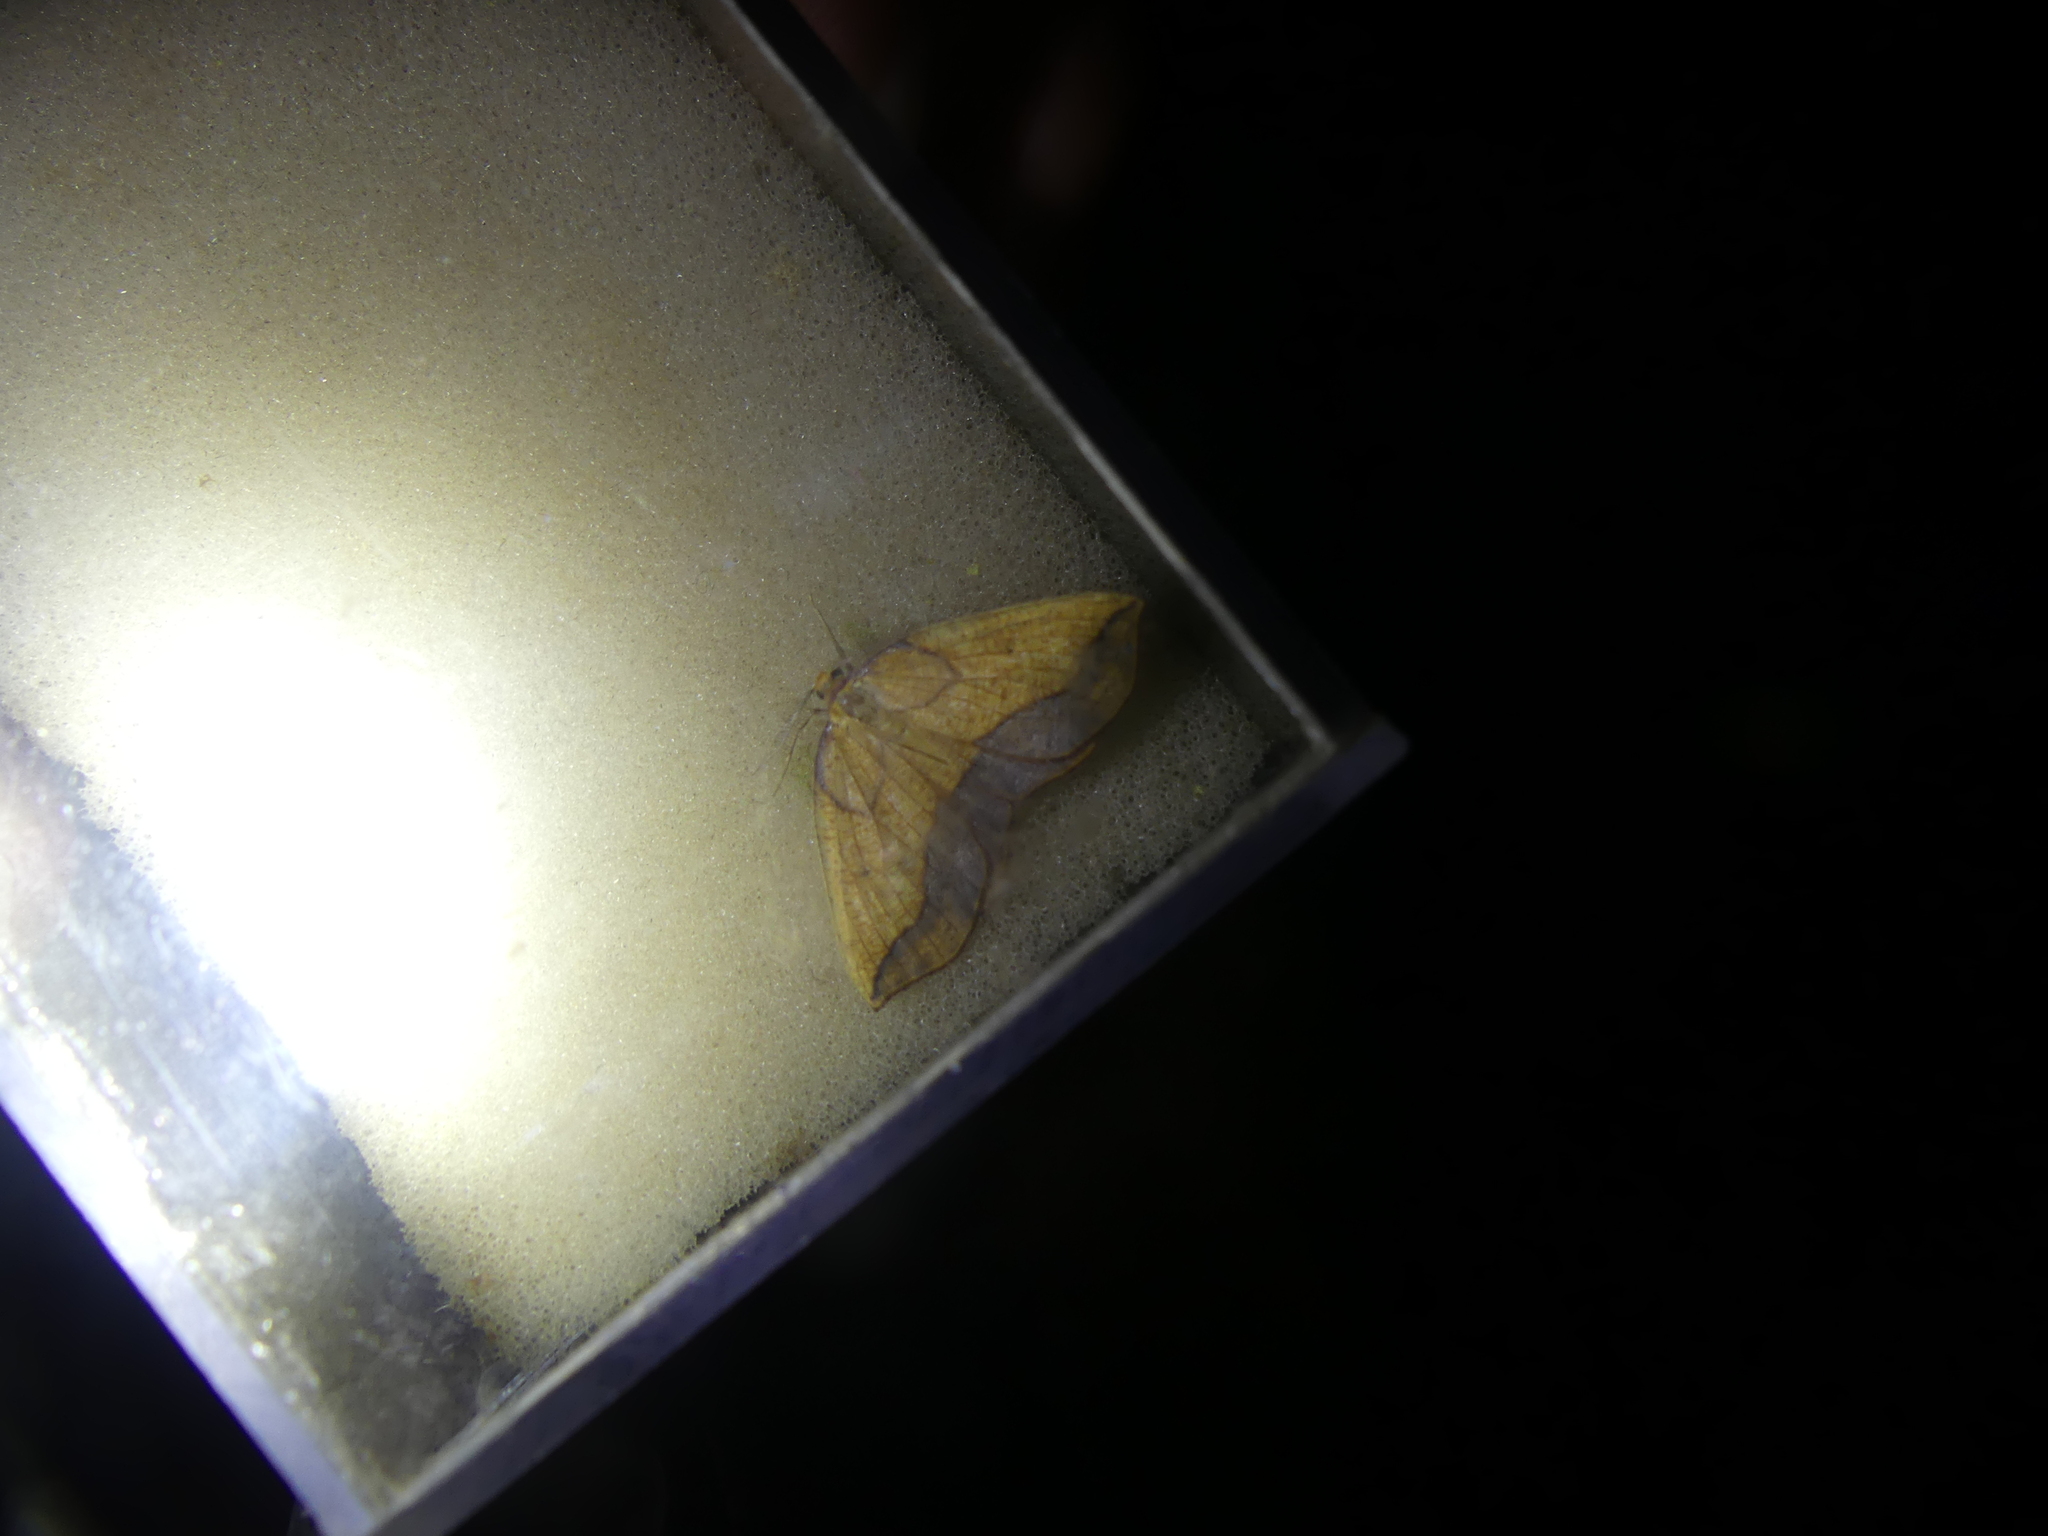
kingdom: Animalia
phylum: Arthropoda
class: Insecta
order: Lepidoptera
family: Geometridae
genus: Epione
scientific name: Epione repandaria
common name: Bordered beauty
